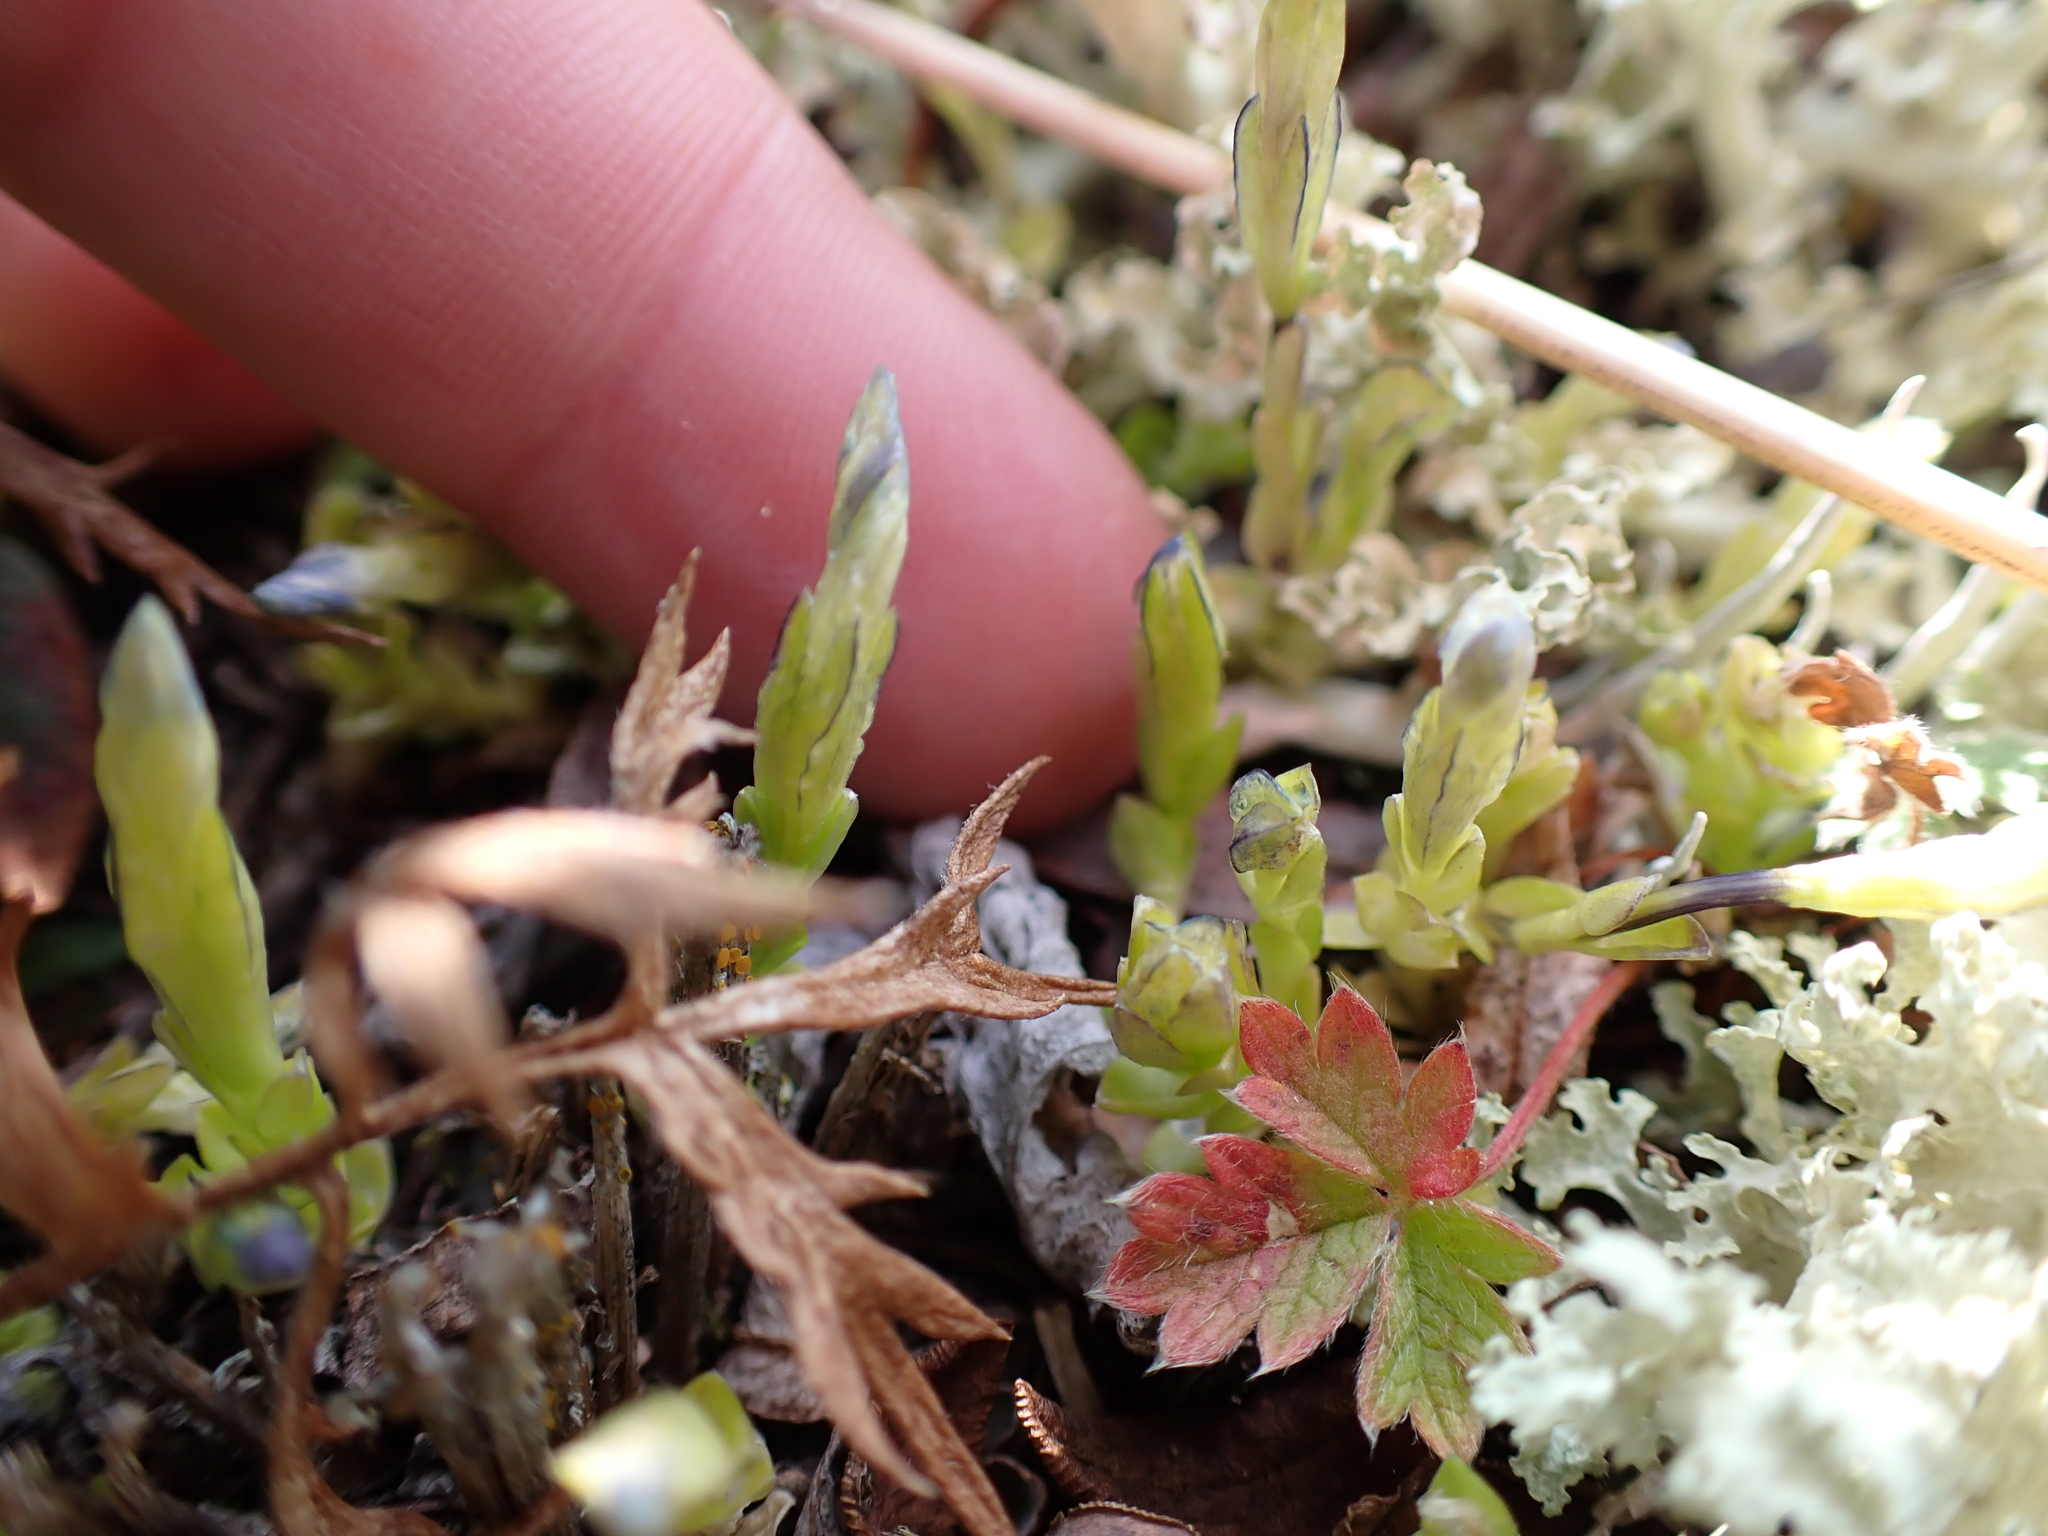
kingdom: Plantae
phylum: Tracheophyta
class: Magnoliopsida
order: Gentianales
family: Gentianaceae
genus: Gentiana
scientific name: Gentiana prostrata
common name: Moss gentian
